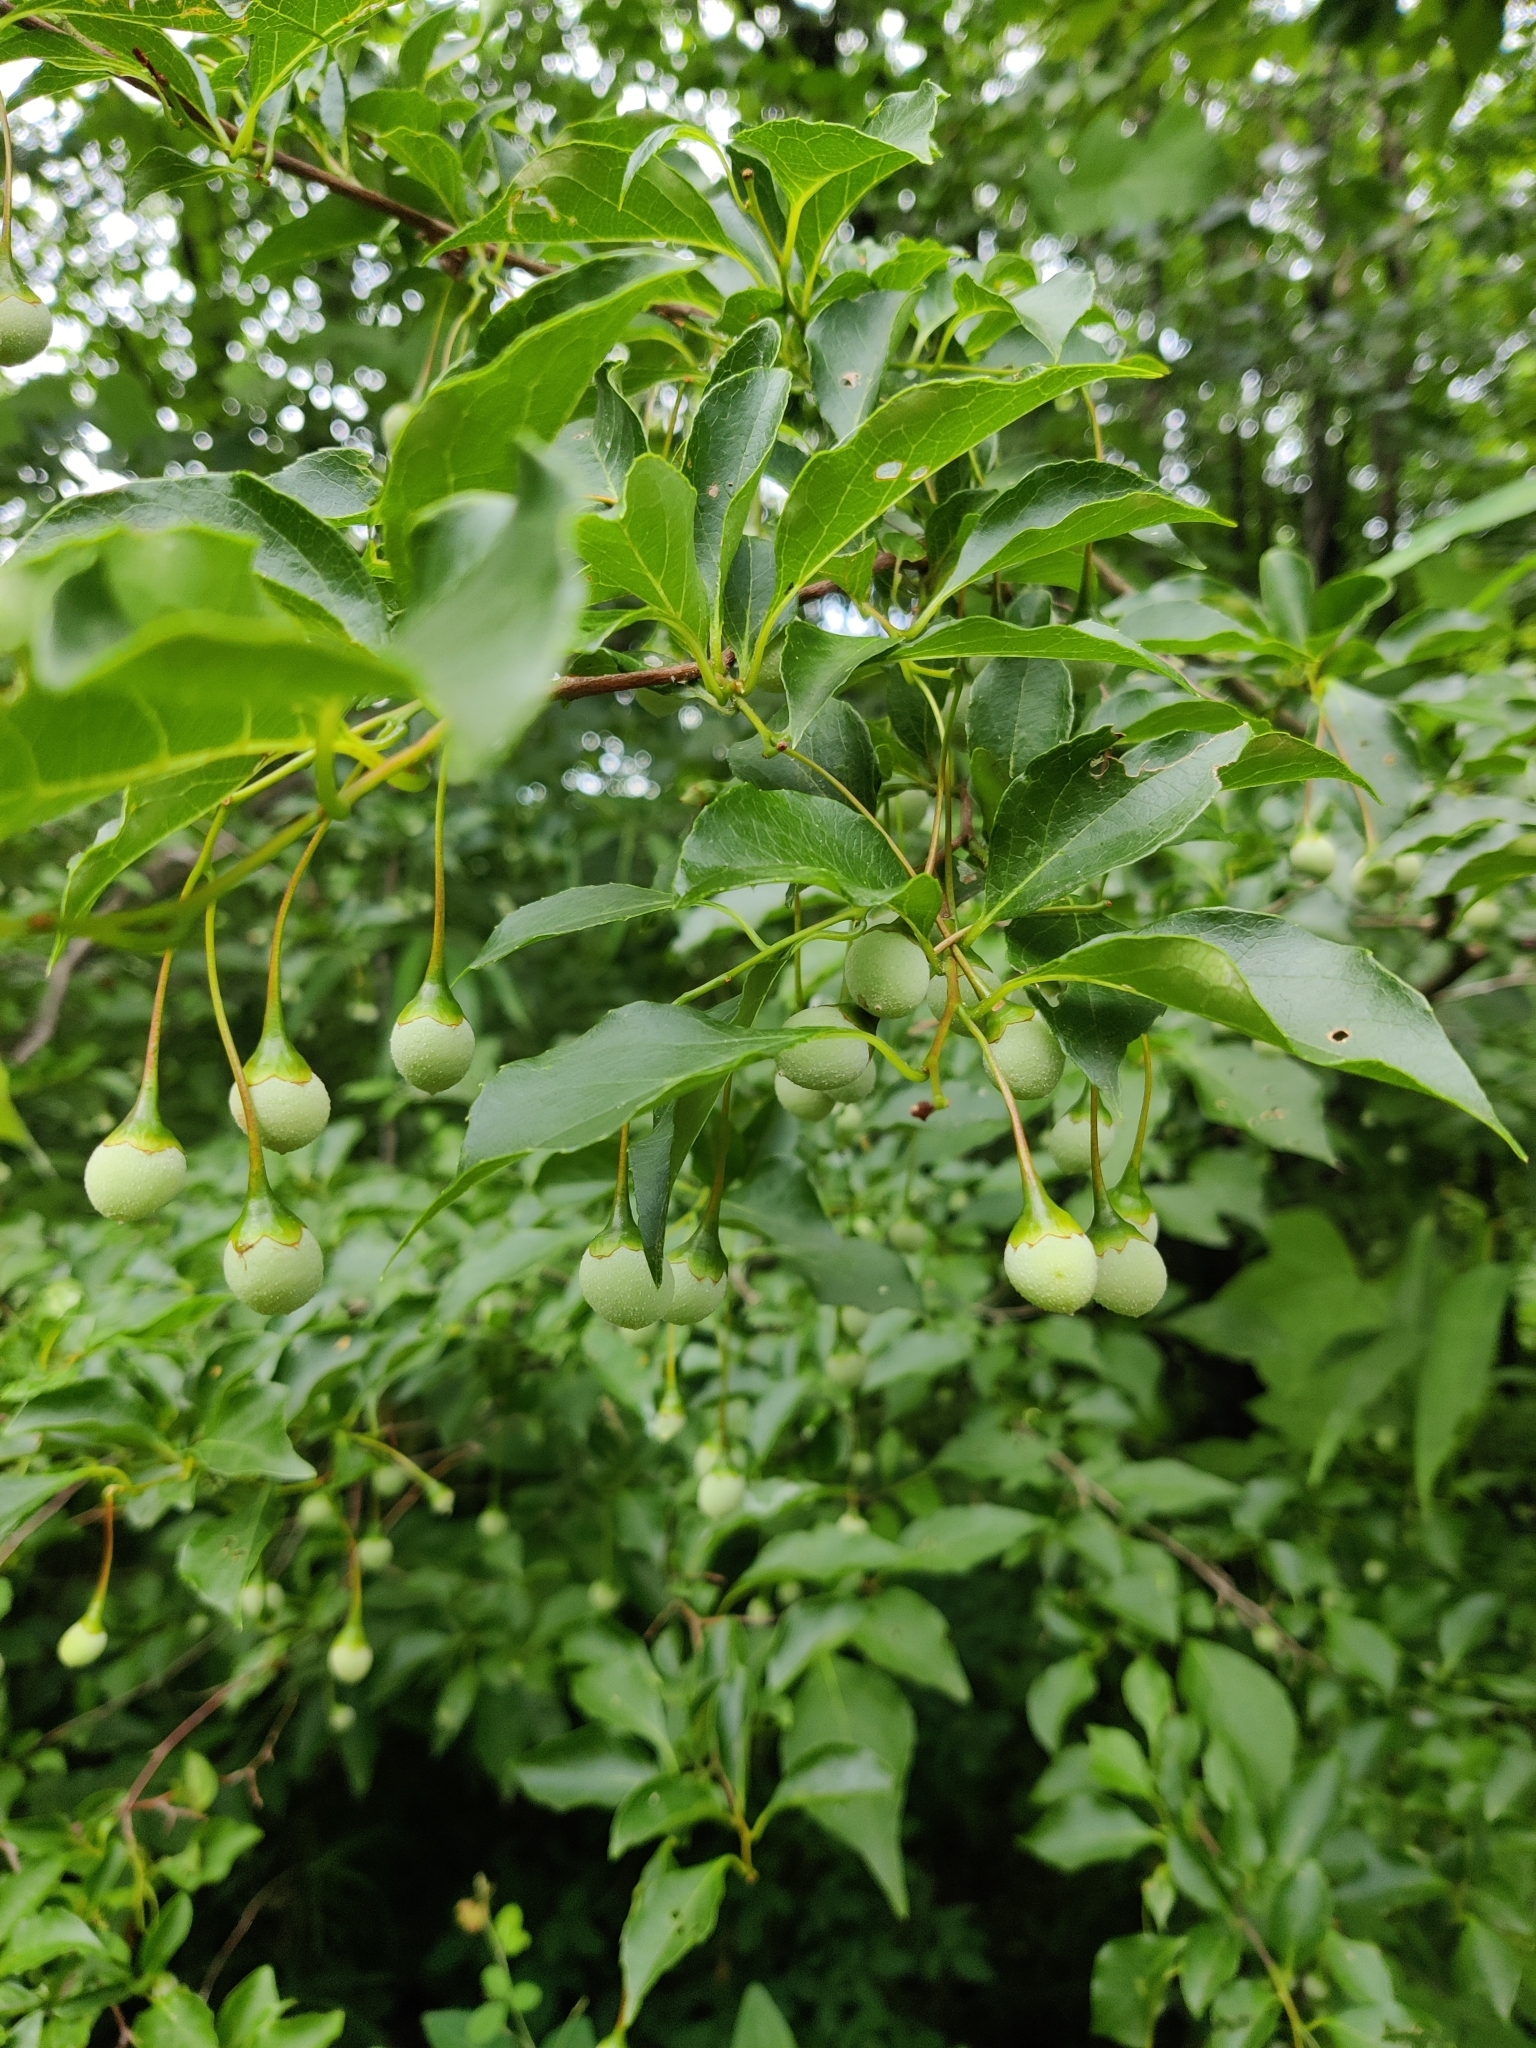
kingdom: Plantae
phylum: Tracheophyta
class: Magnoliopsida
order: Ericales
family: Styracaceae
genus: Styrax
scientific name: Styrax japonicus
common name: Japanese snowbell
